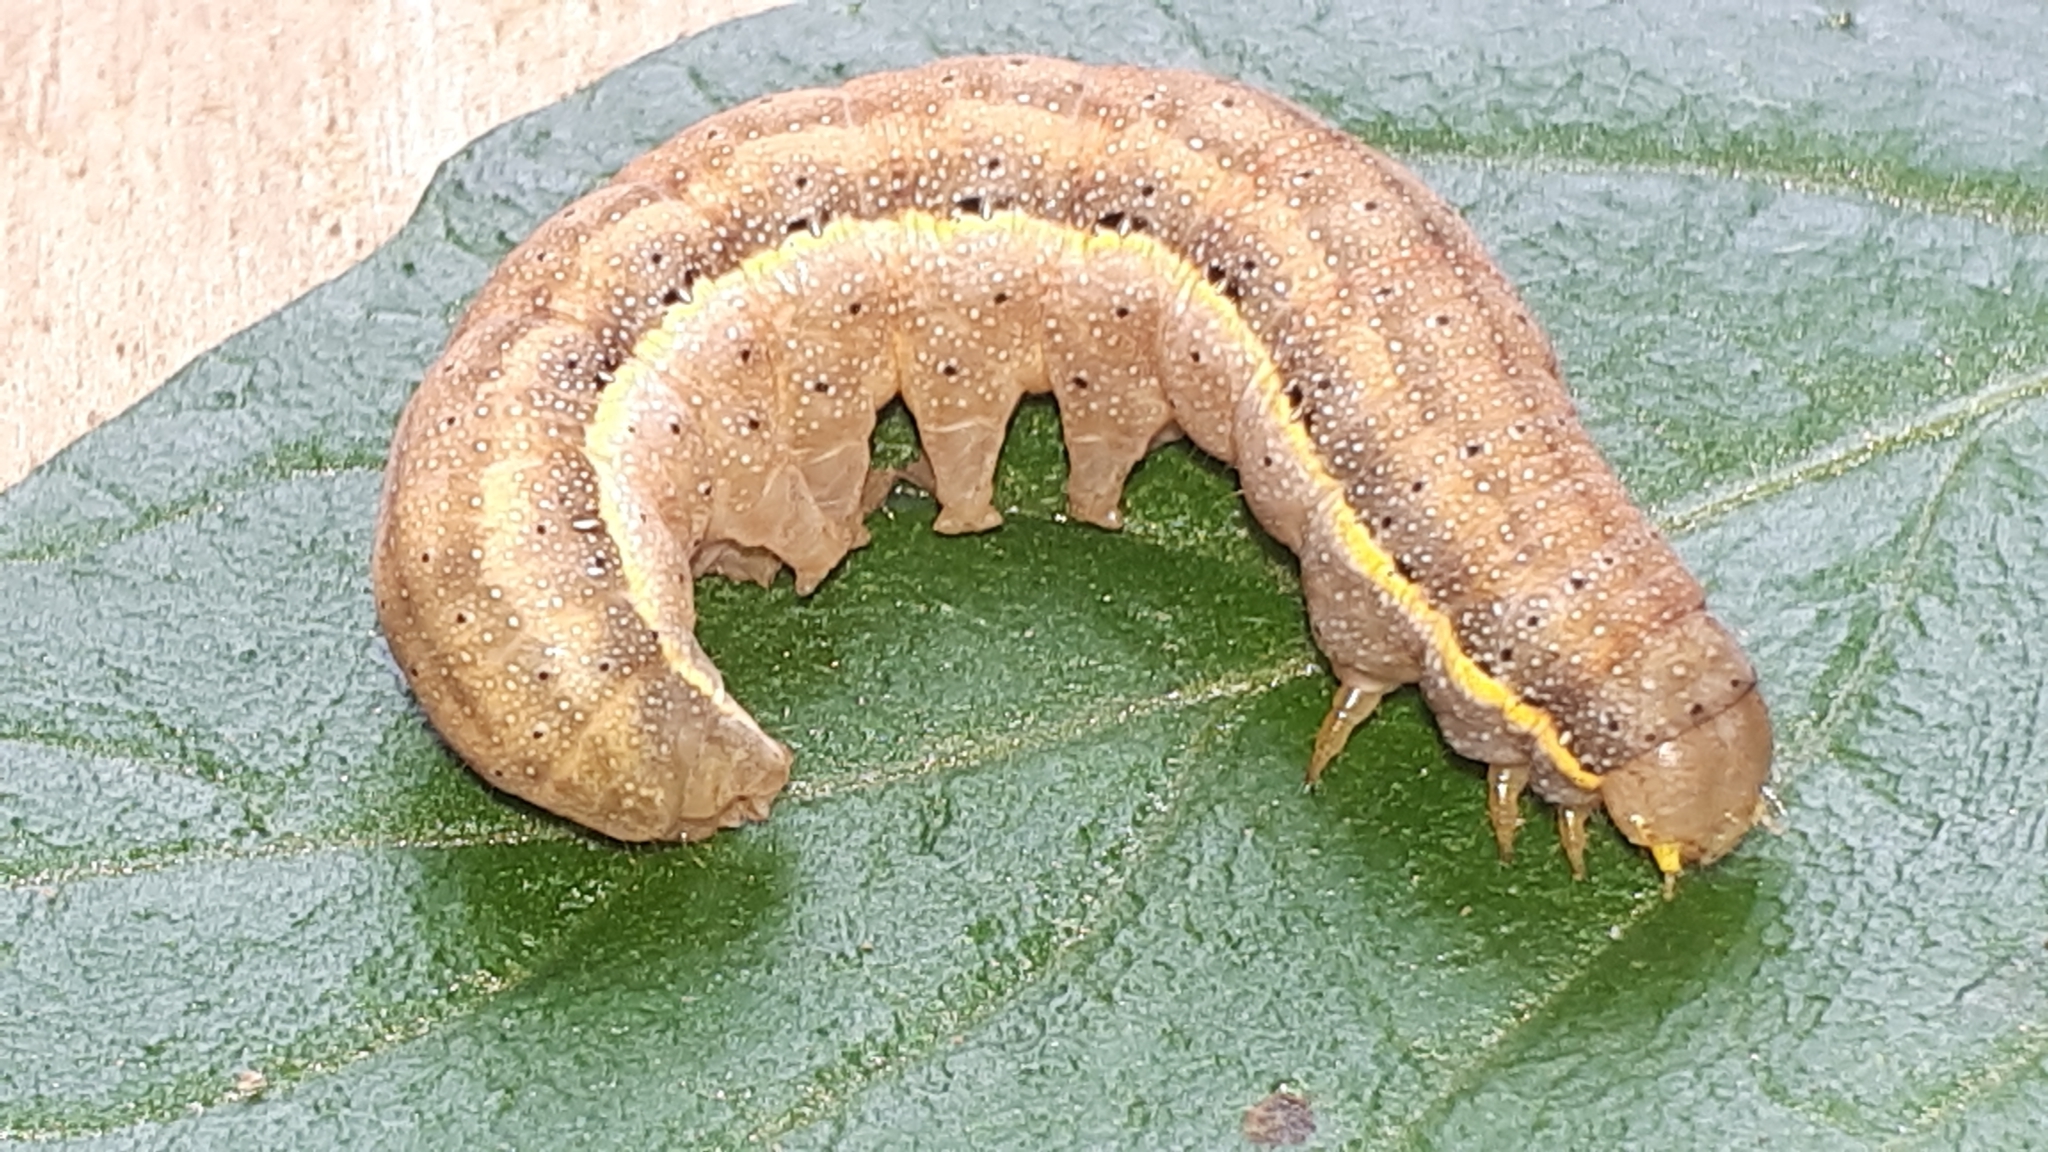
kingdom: Animalia
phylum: Arthropoda
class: Insecta
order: Lepidoptera
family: Noctuidae
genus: Lacanobia
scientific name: Lacanobia oleracea
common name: Bright-line brown-eye
